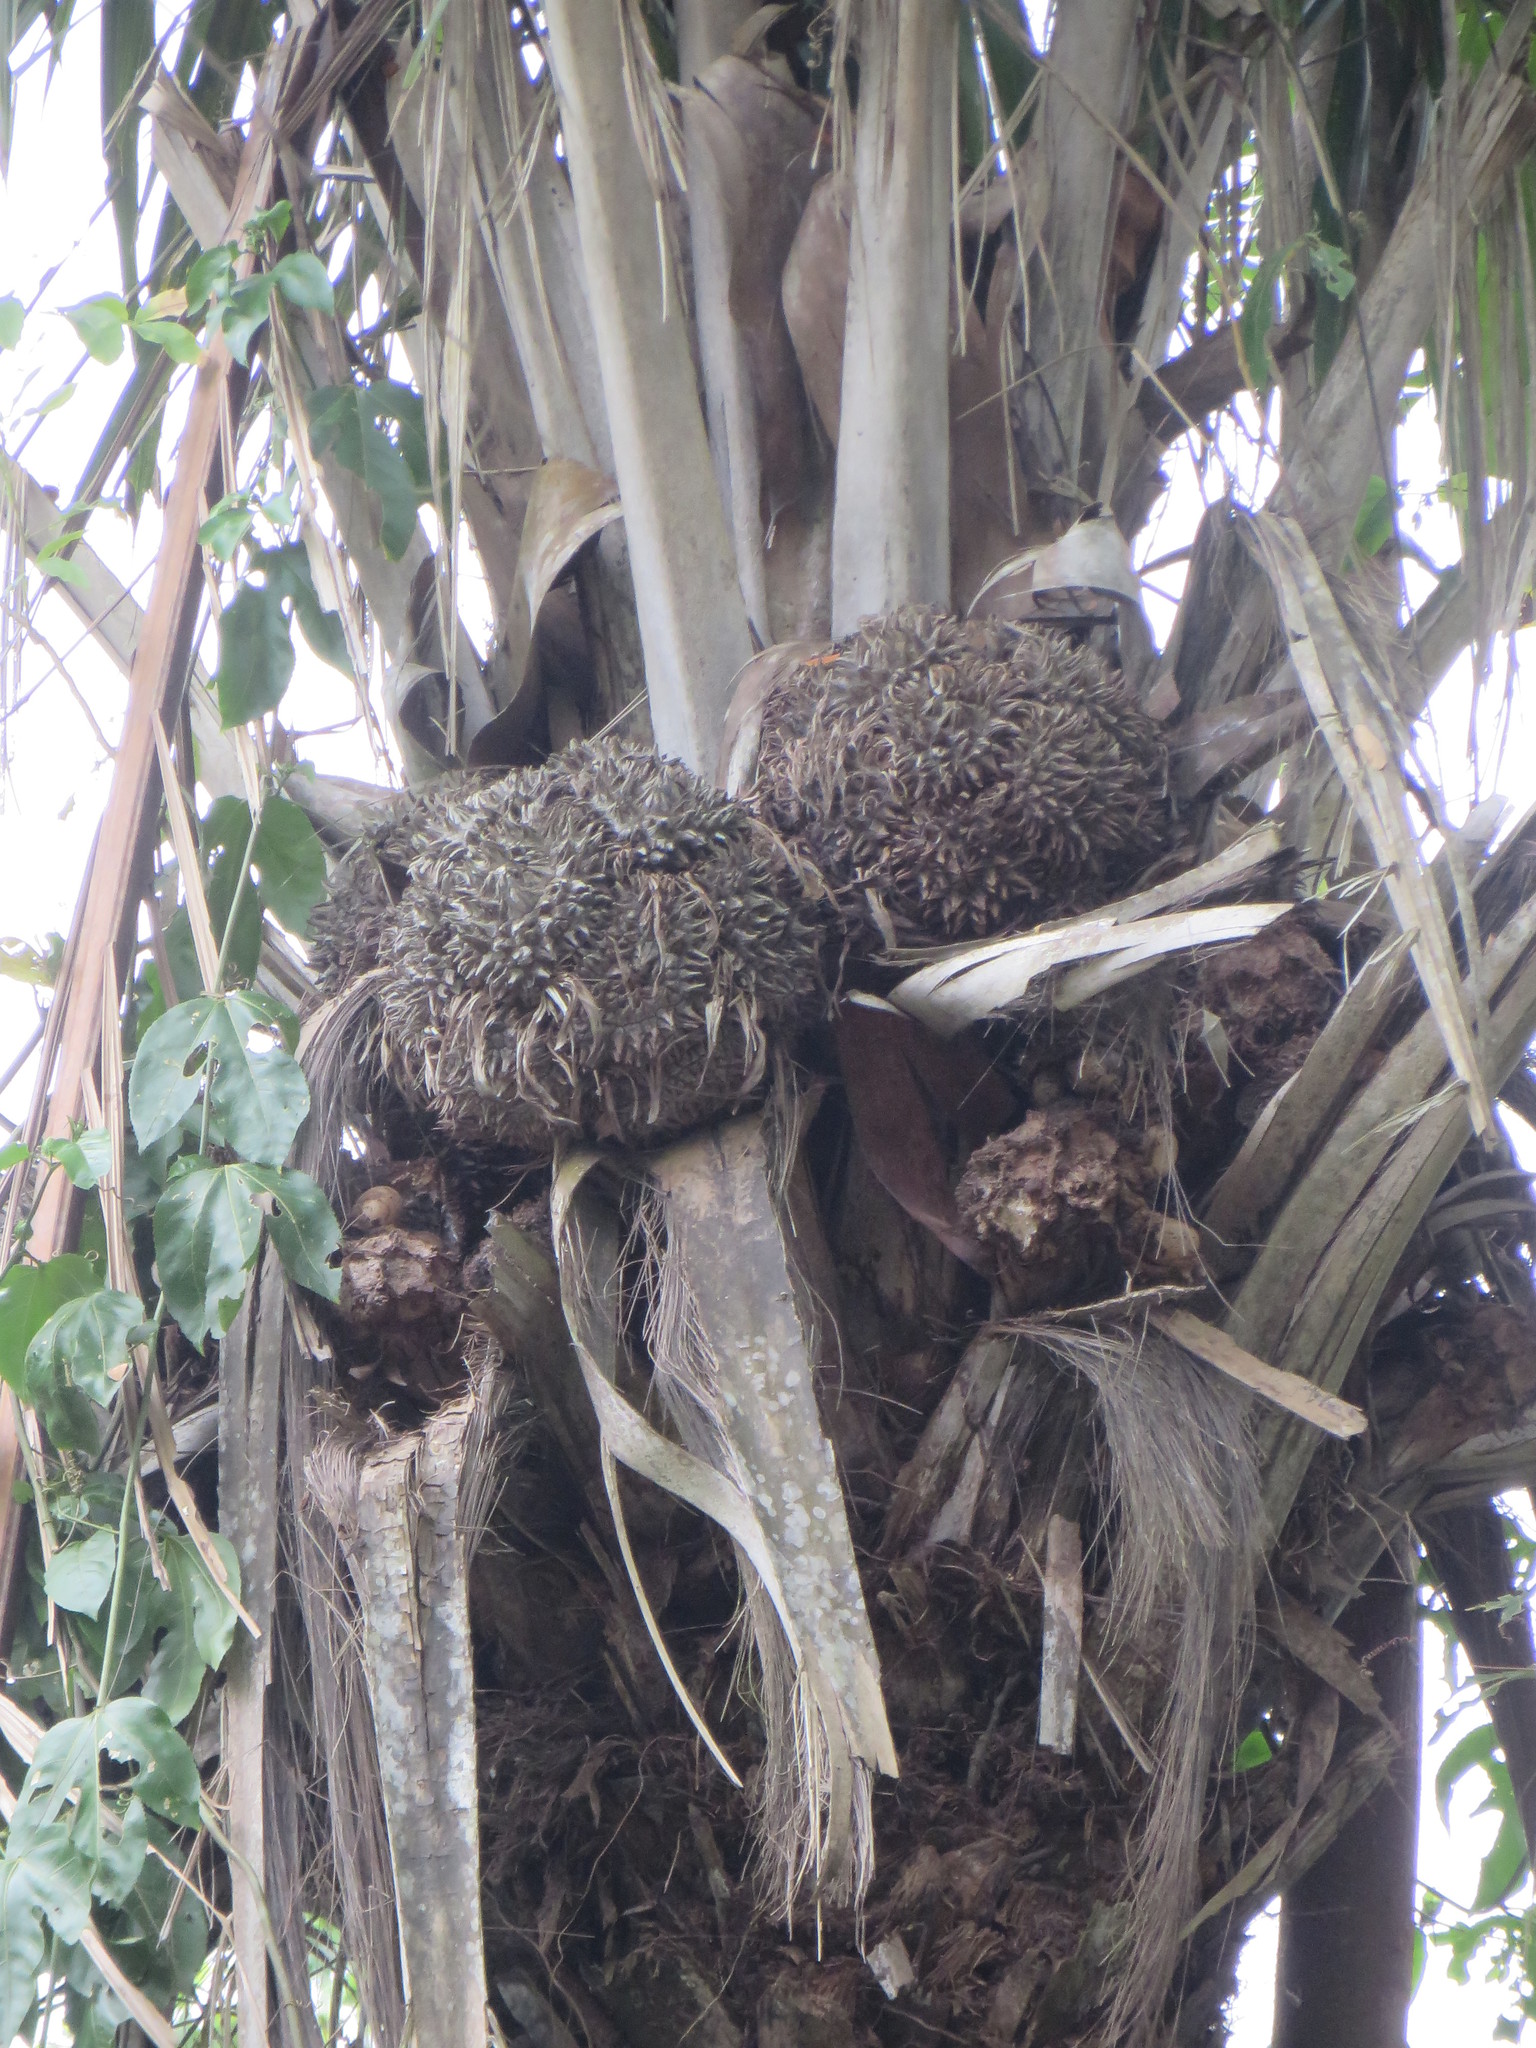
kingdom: Plantae
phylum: Tracheophyta
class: Liliopsida
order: Arecales
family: Arecaceae
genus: Phytelephas
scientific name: Phytelephas aequatorialis
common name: Ivory palm
